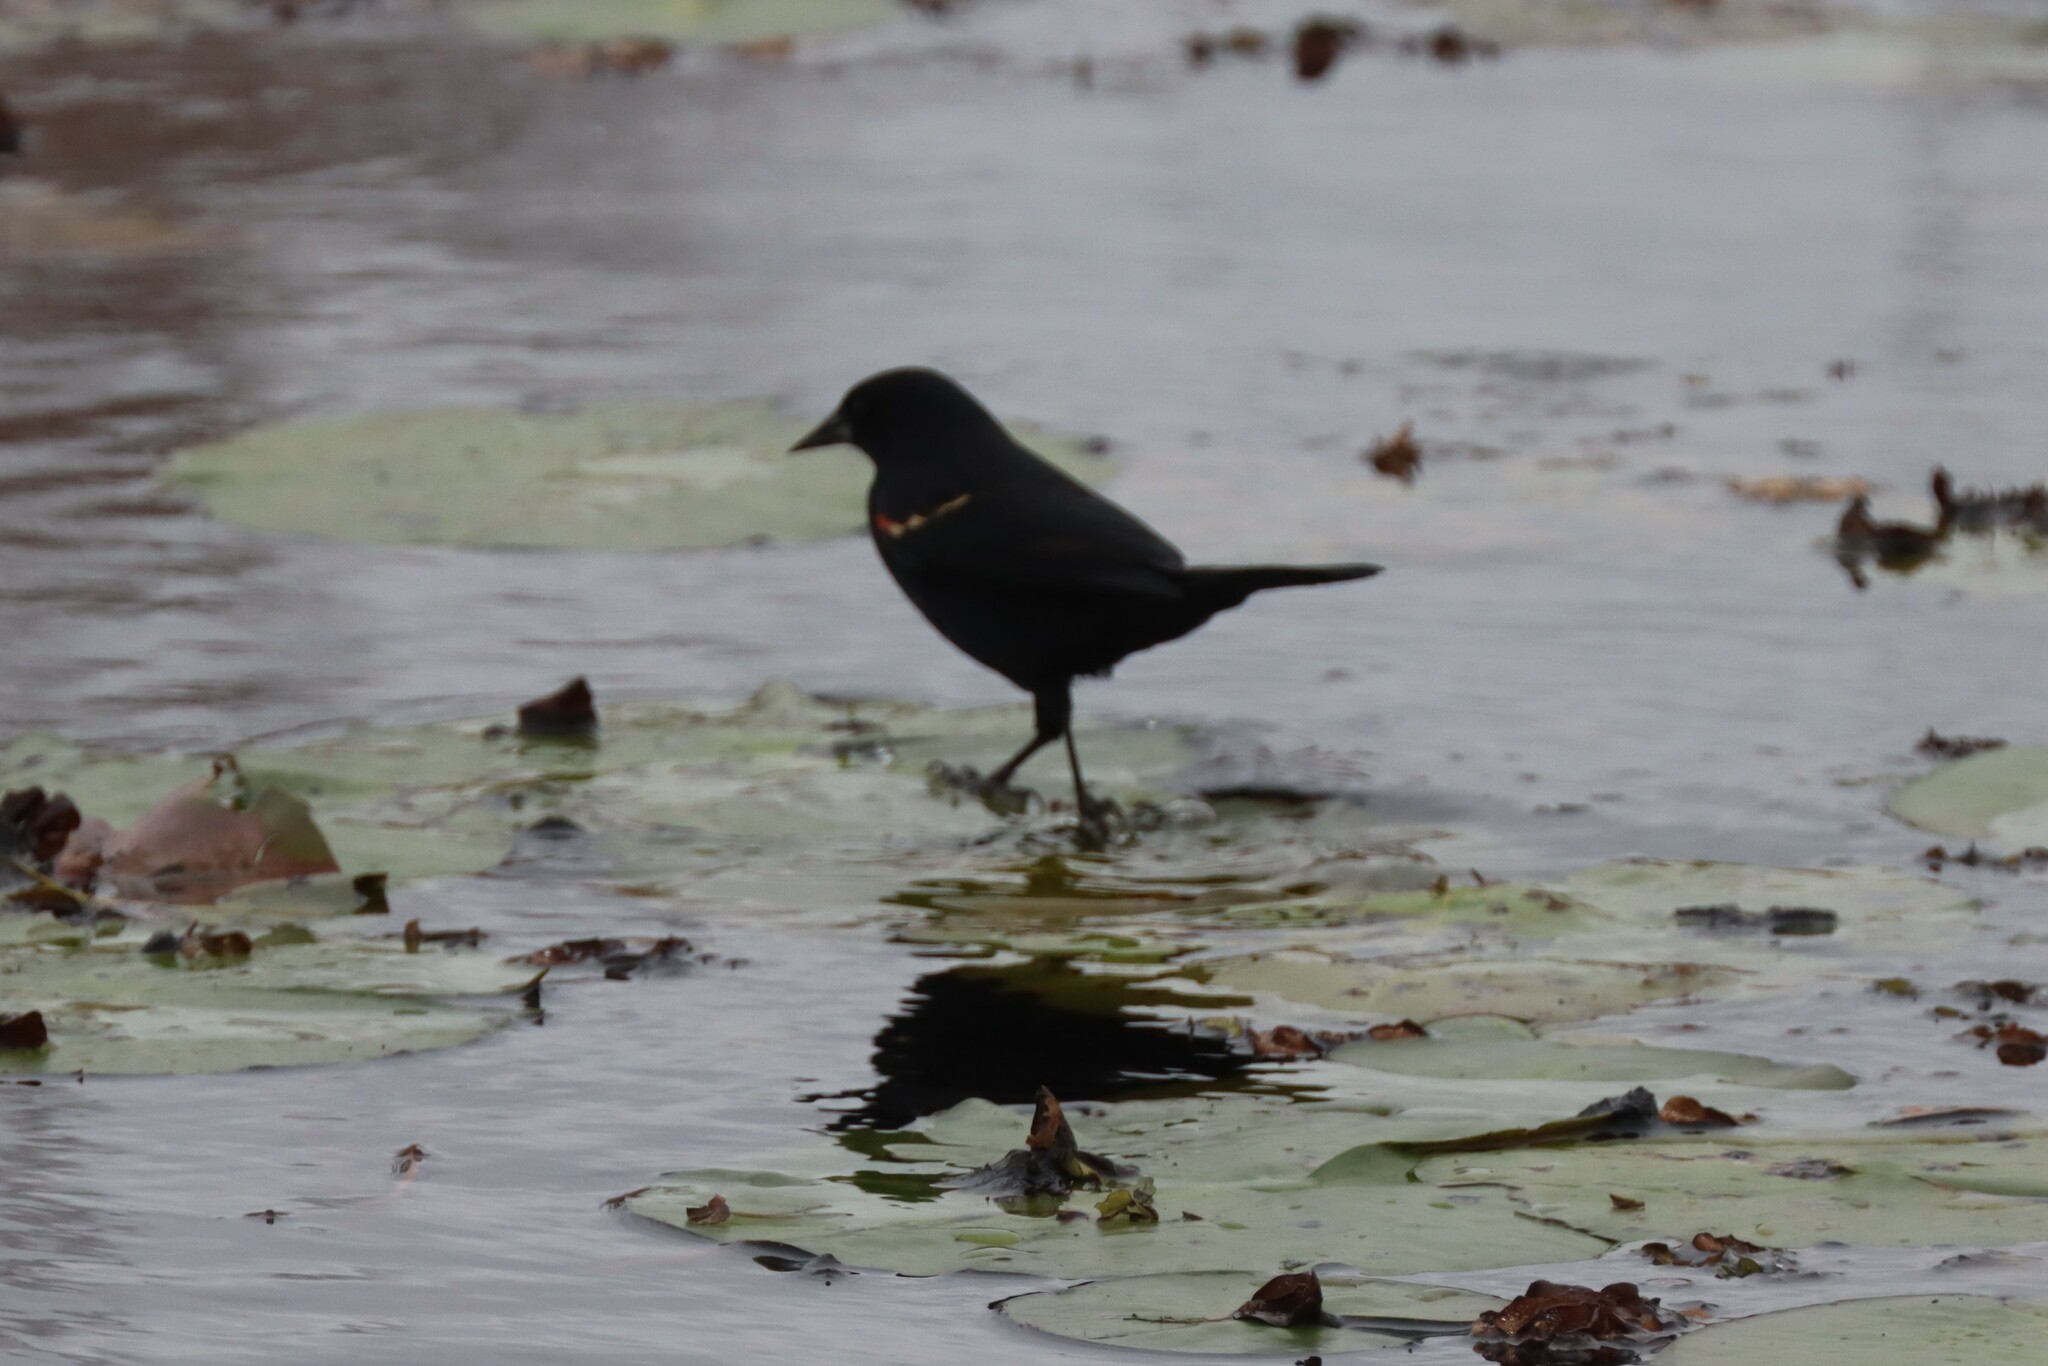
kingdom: Animalia
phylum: Chordata
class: Aves
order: Passeriformes
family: Icteridae
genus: Agelaius
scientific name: Agelaius phoeniceus
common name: Red-winged blackbird
